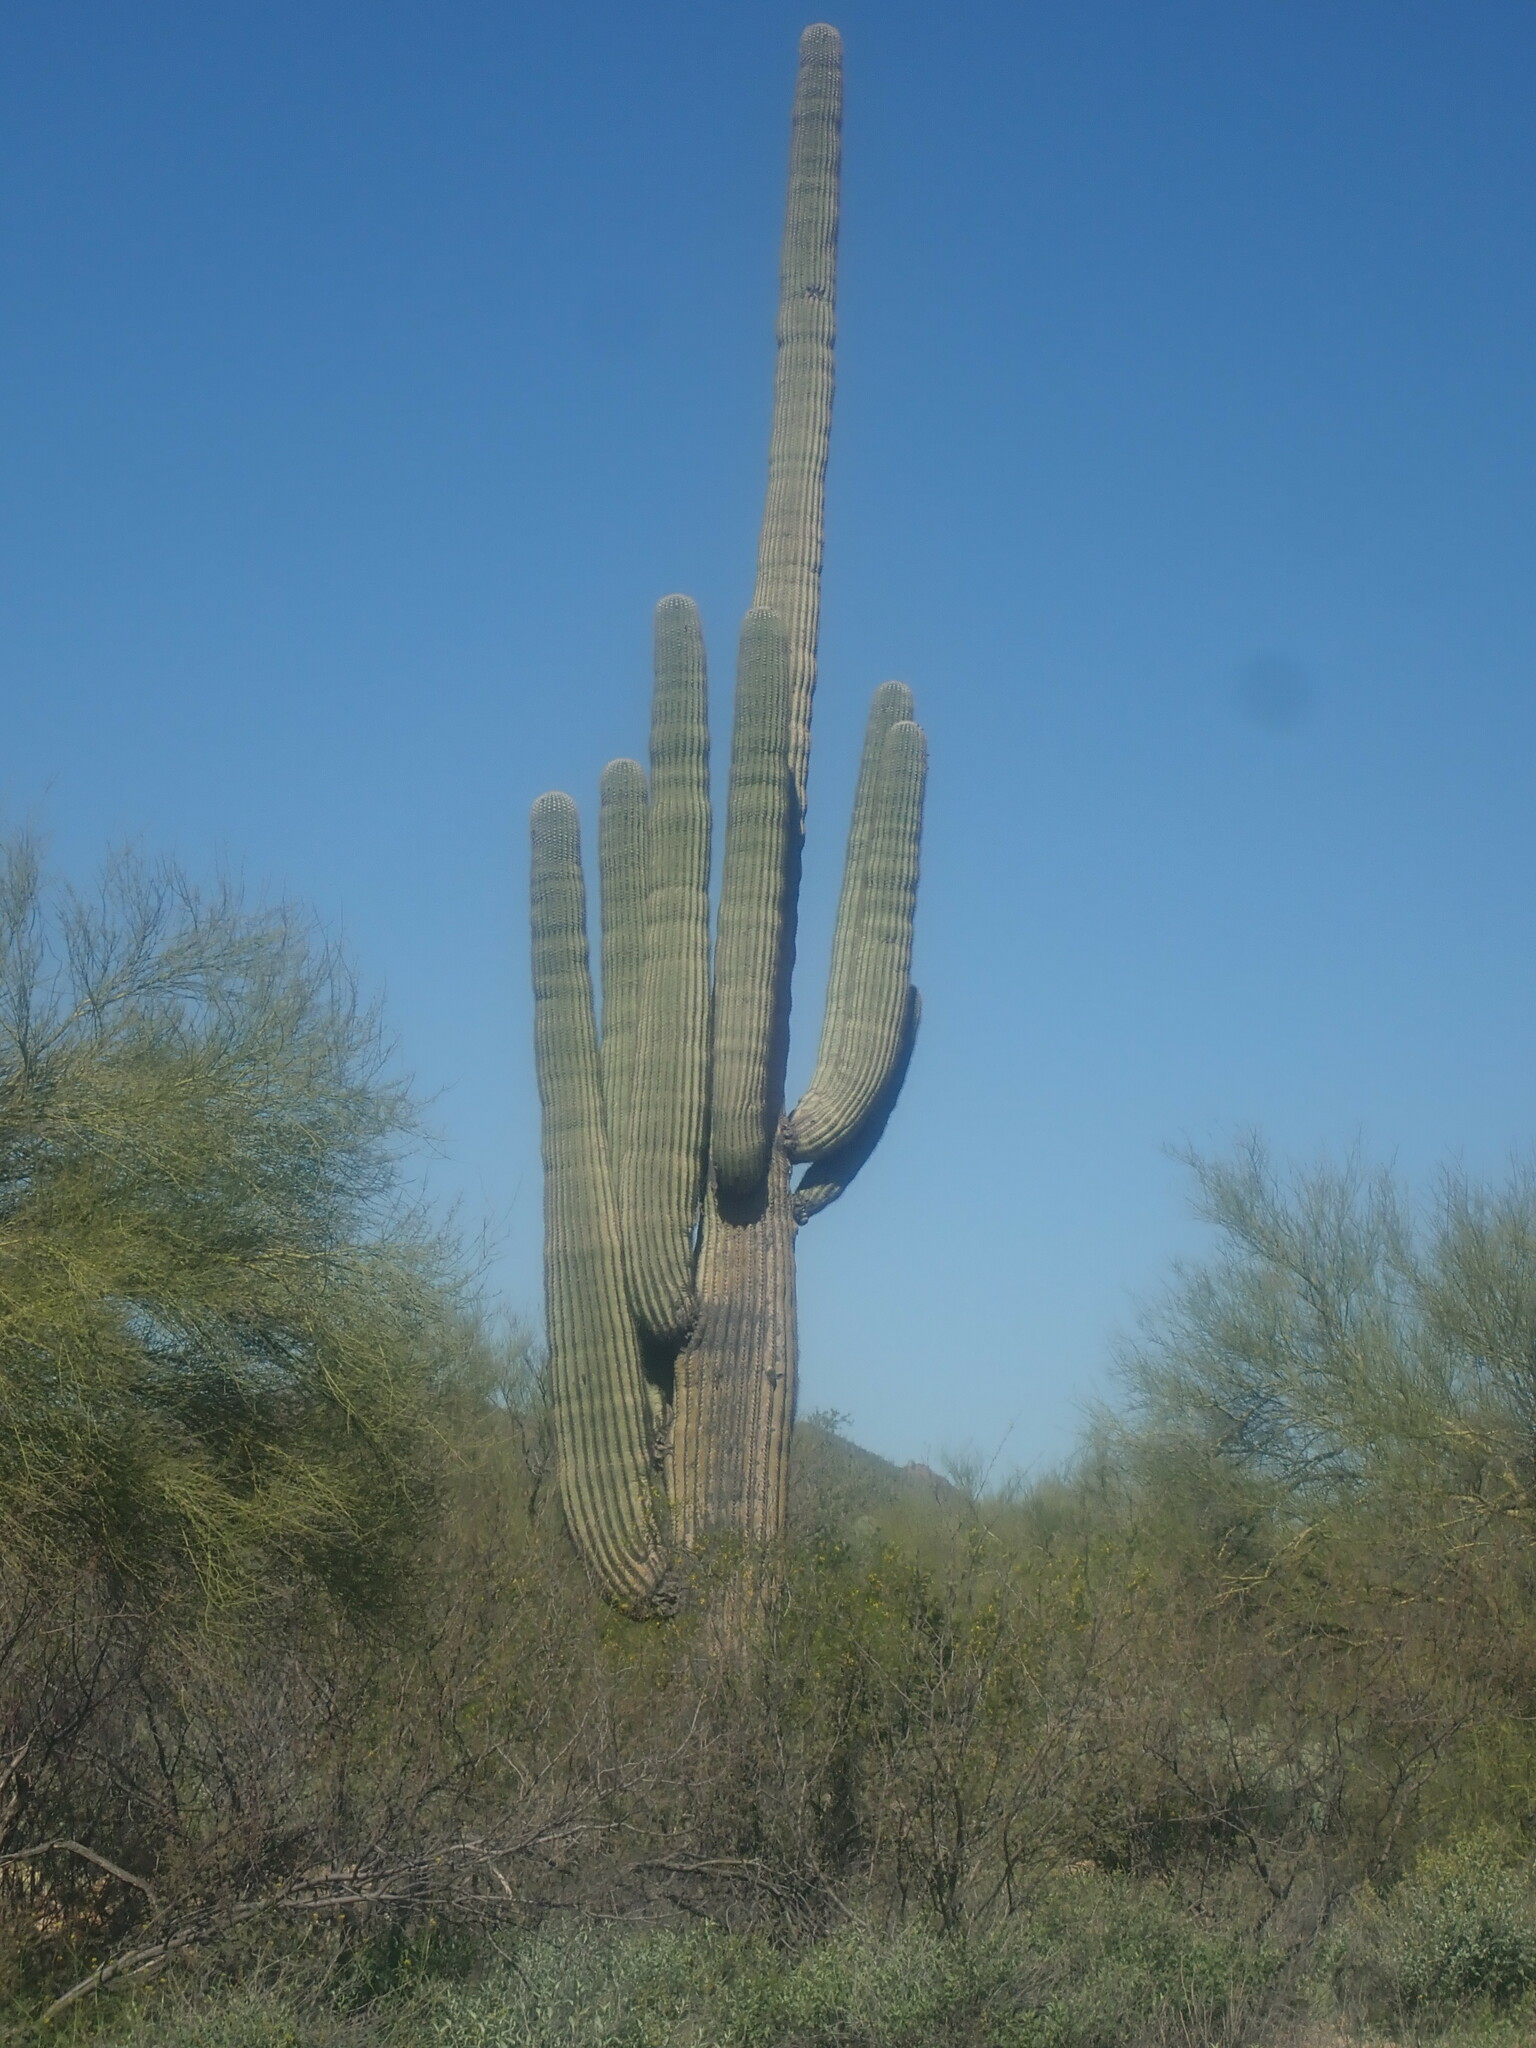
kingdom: Plantae
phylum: Tracheophyta
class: Magnoliopsida
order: Caryophyllales
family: Cactaceae
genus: Carnegiea
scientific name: Carnegiea gigantea
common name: Saguaro
